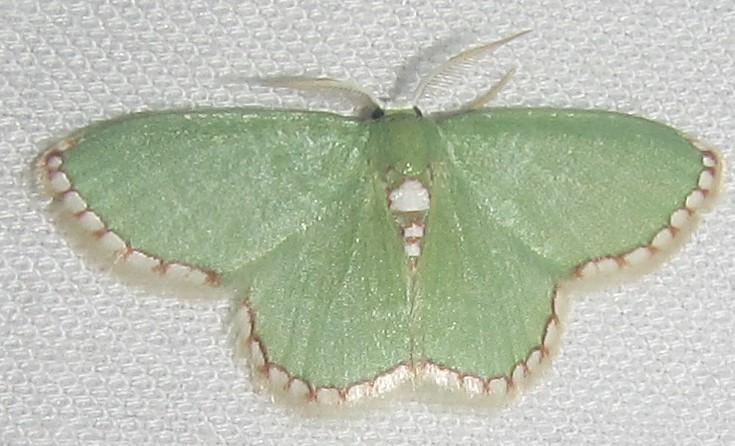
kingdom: Animalia
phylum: Arthropoda
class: Insecta
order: Lepidoptera
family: Geometridae
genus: Allochrostes
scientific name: Allochrostes impunctata
